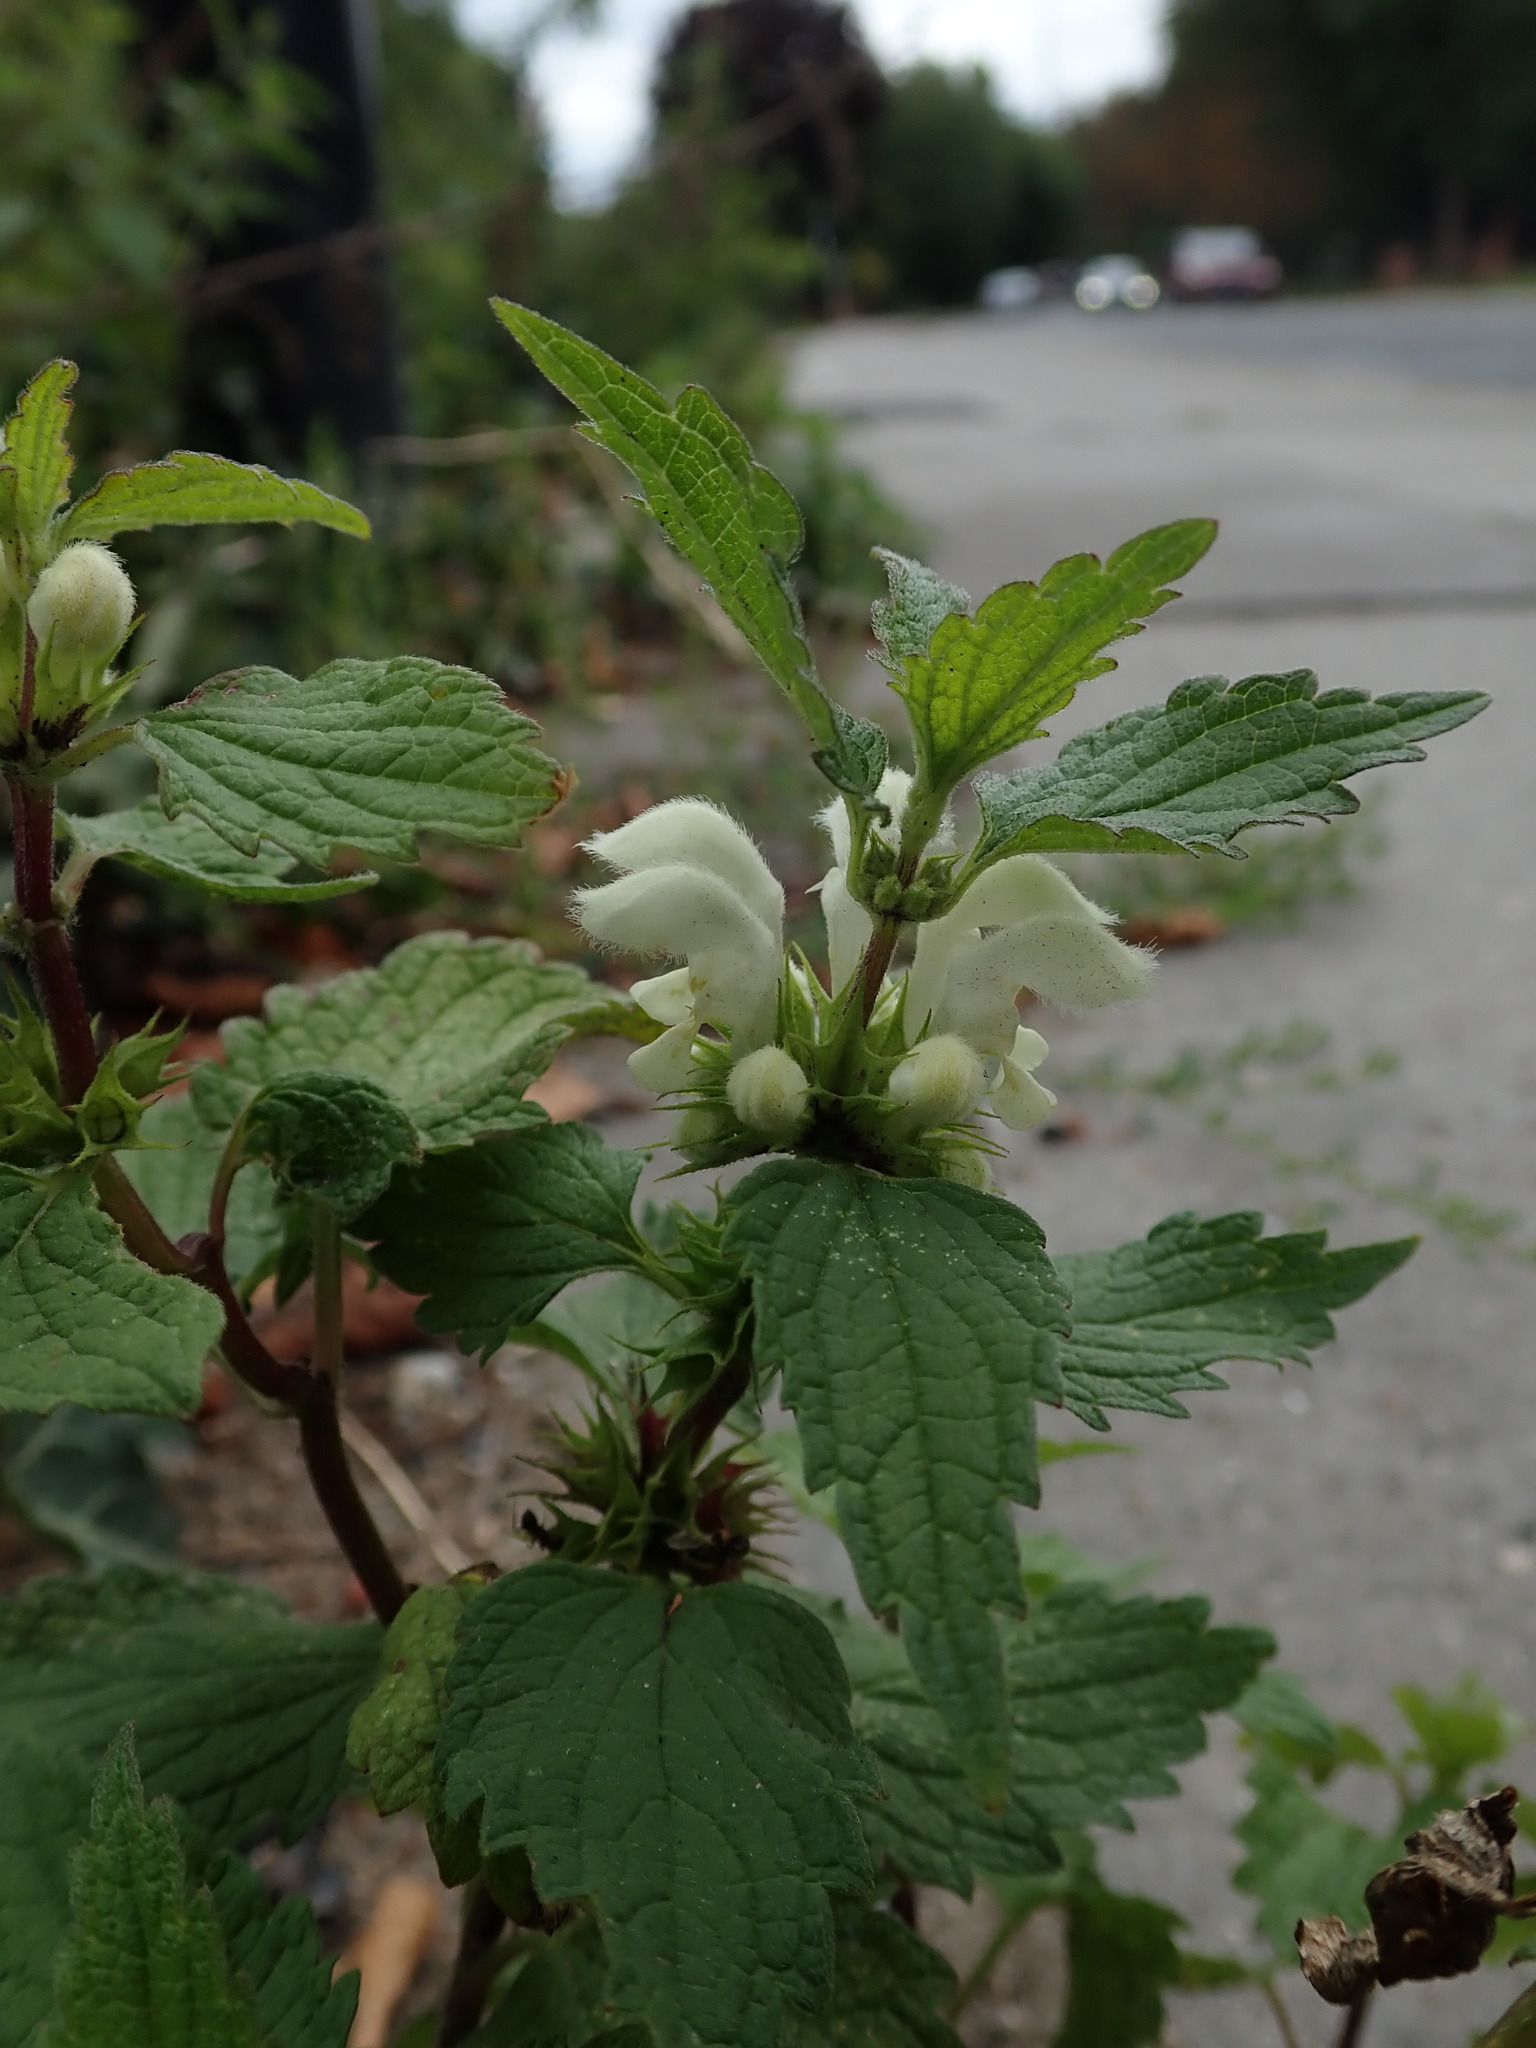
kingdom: Plantae
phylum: Tracheophyta
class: Magnoliopsida
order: Lamiales
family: Lamiaceae
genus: Lamium
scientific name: Lamium album
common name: White dead-nettle
